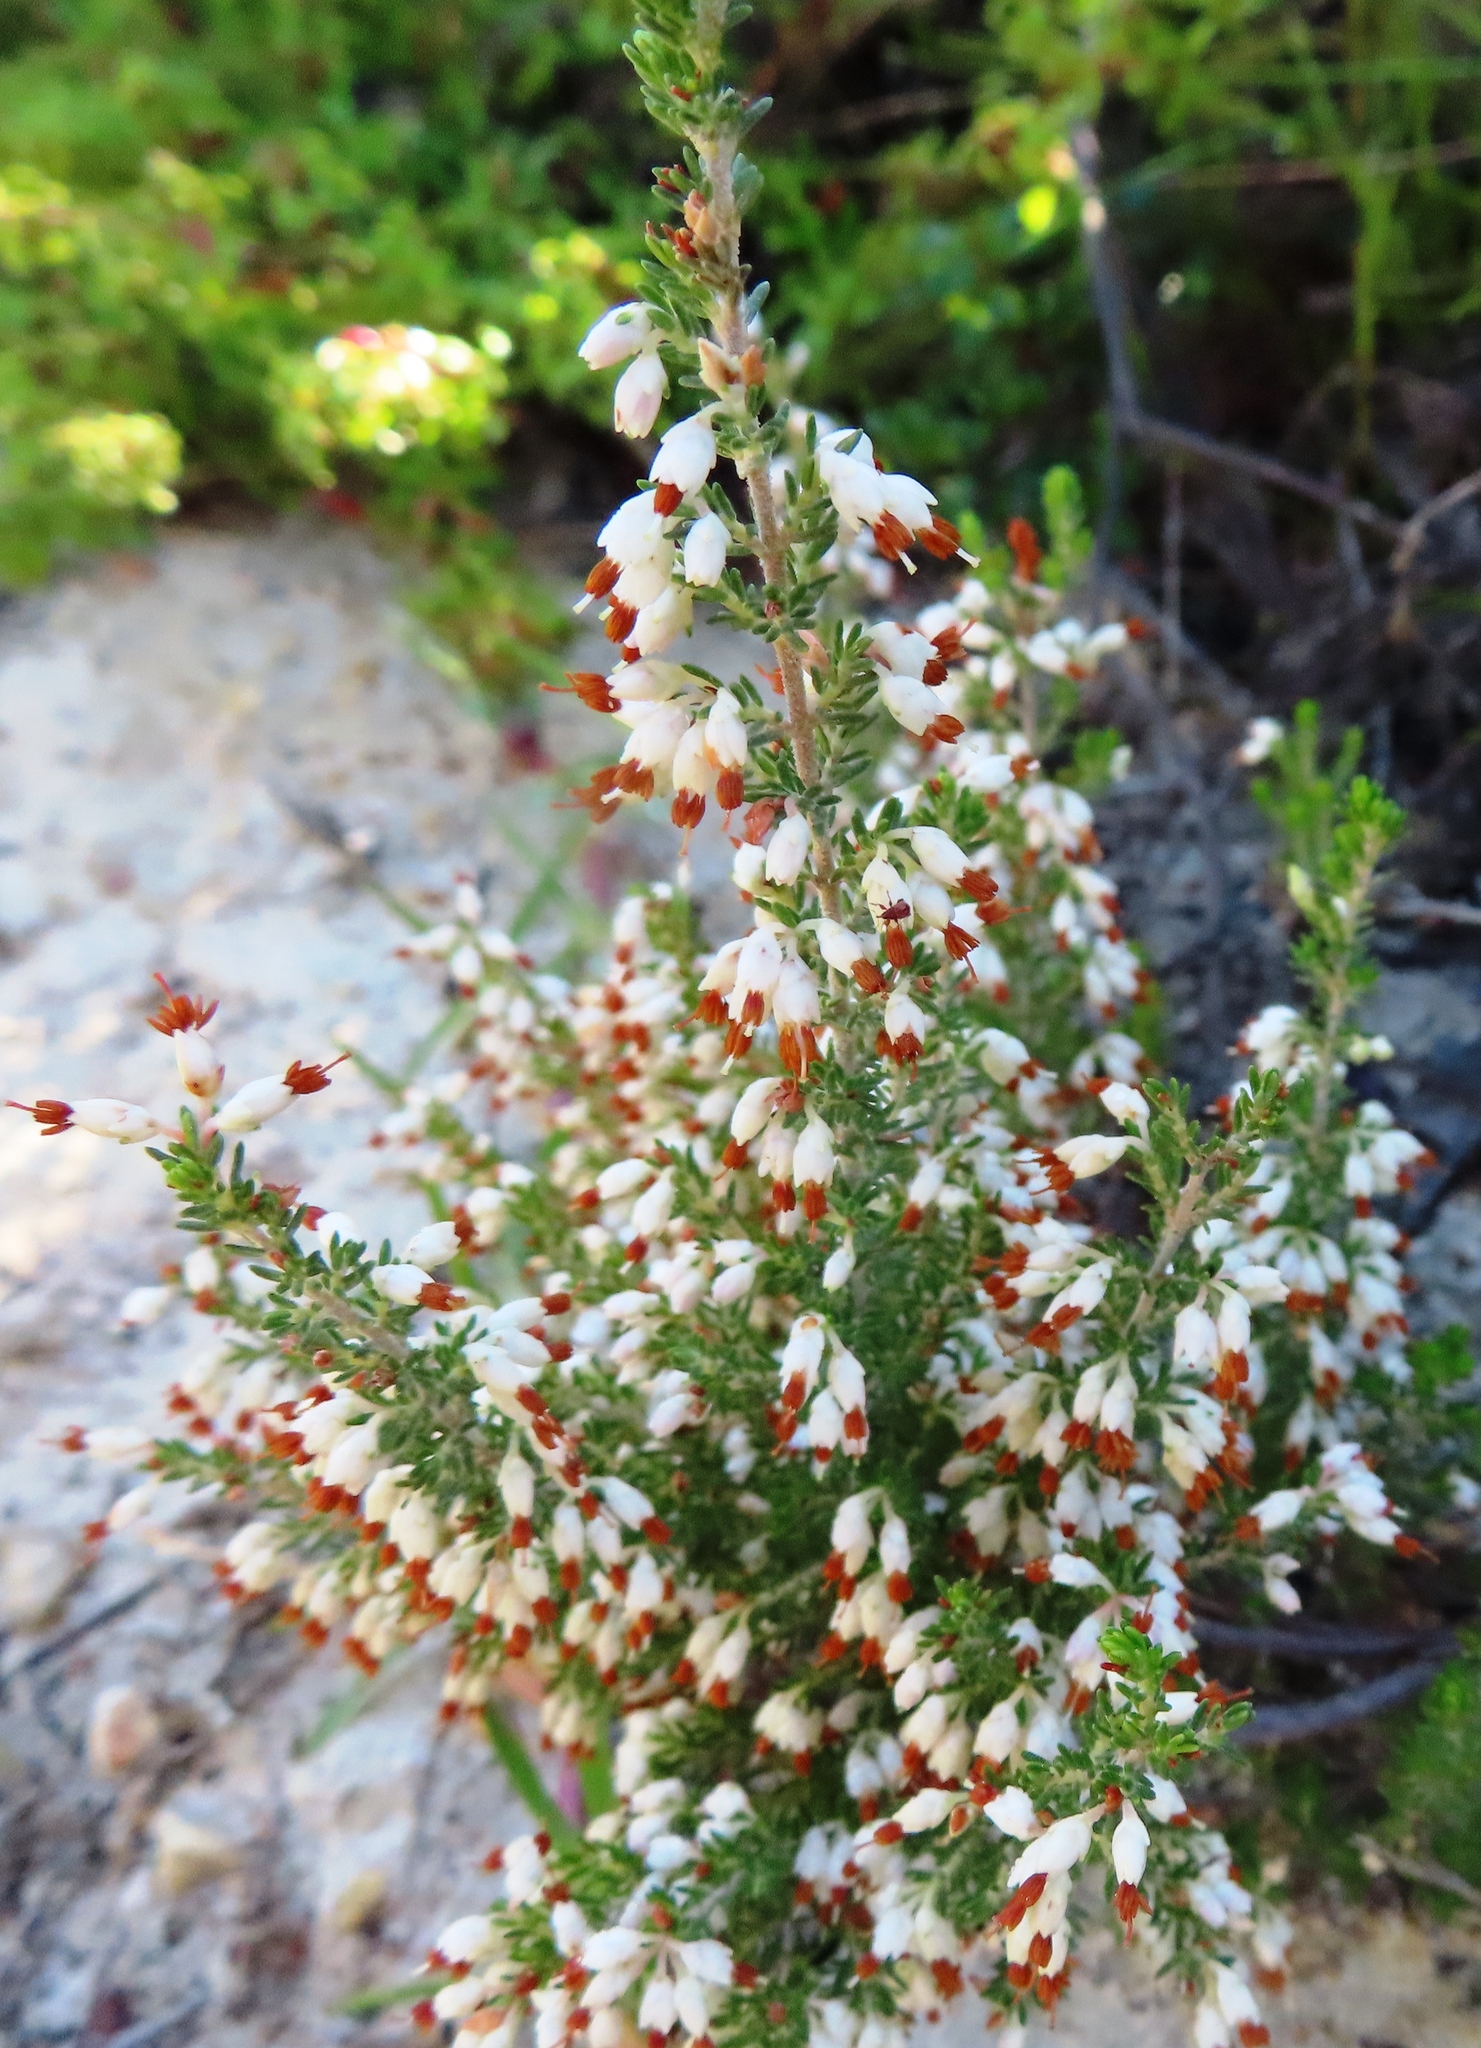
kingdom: Plantae
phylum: Tracheophyta
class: Magnoliopsida
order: Ericales
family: Ericaceae
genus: Erica
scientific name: Erica imbricata
